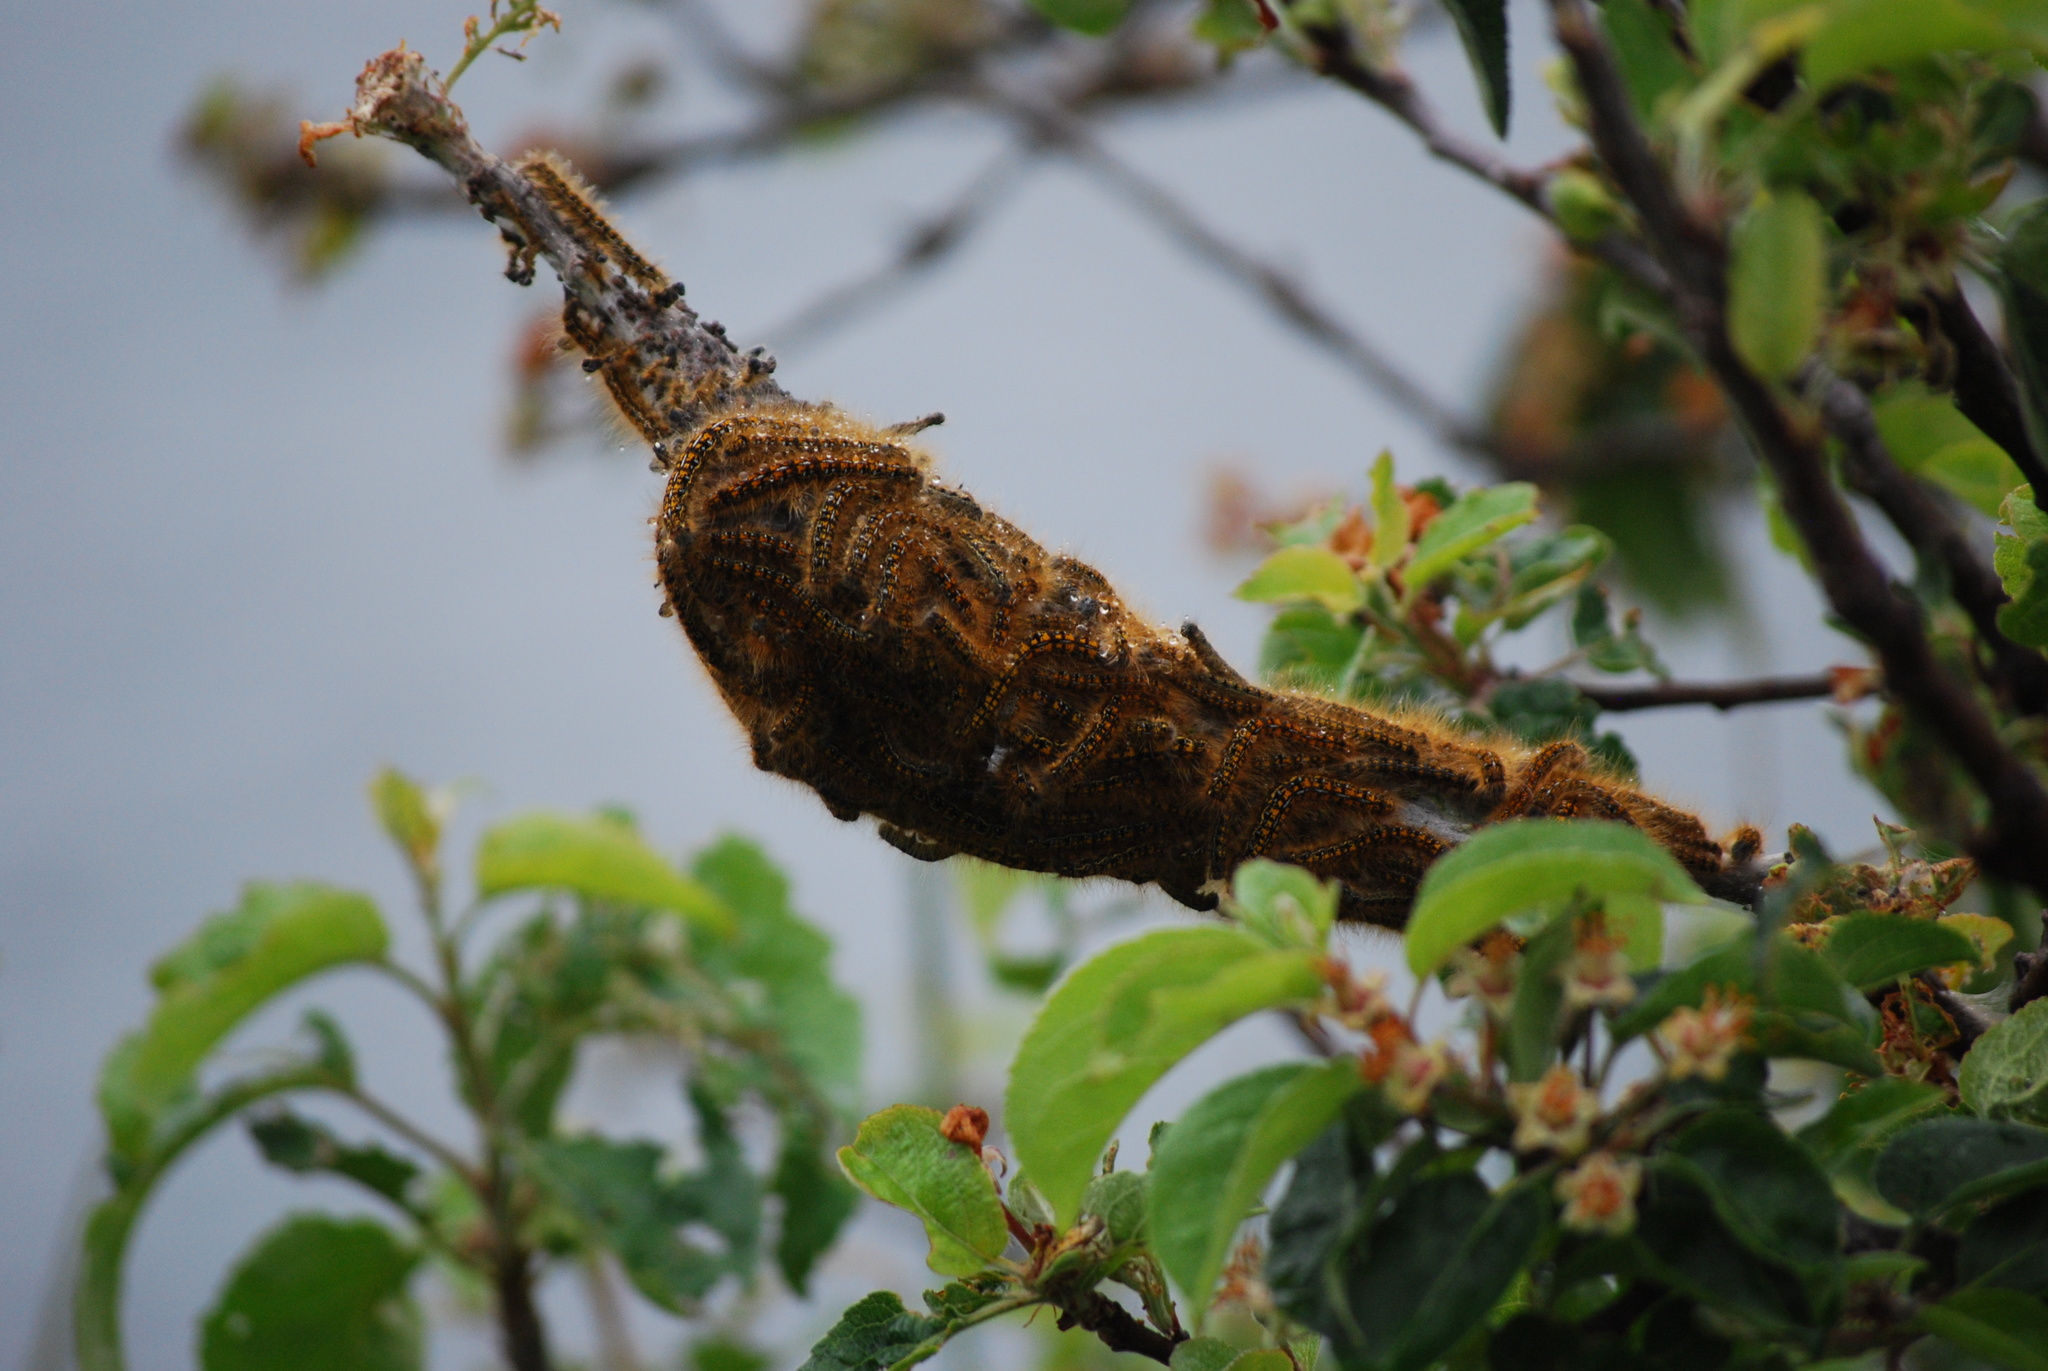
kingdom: Animalia
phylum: Arthropoda
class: Insecta
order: Lepidoptera
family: Lasiocampidae
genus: Malacosoma
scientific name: Malacosoma californica
